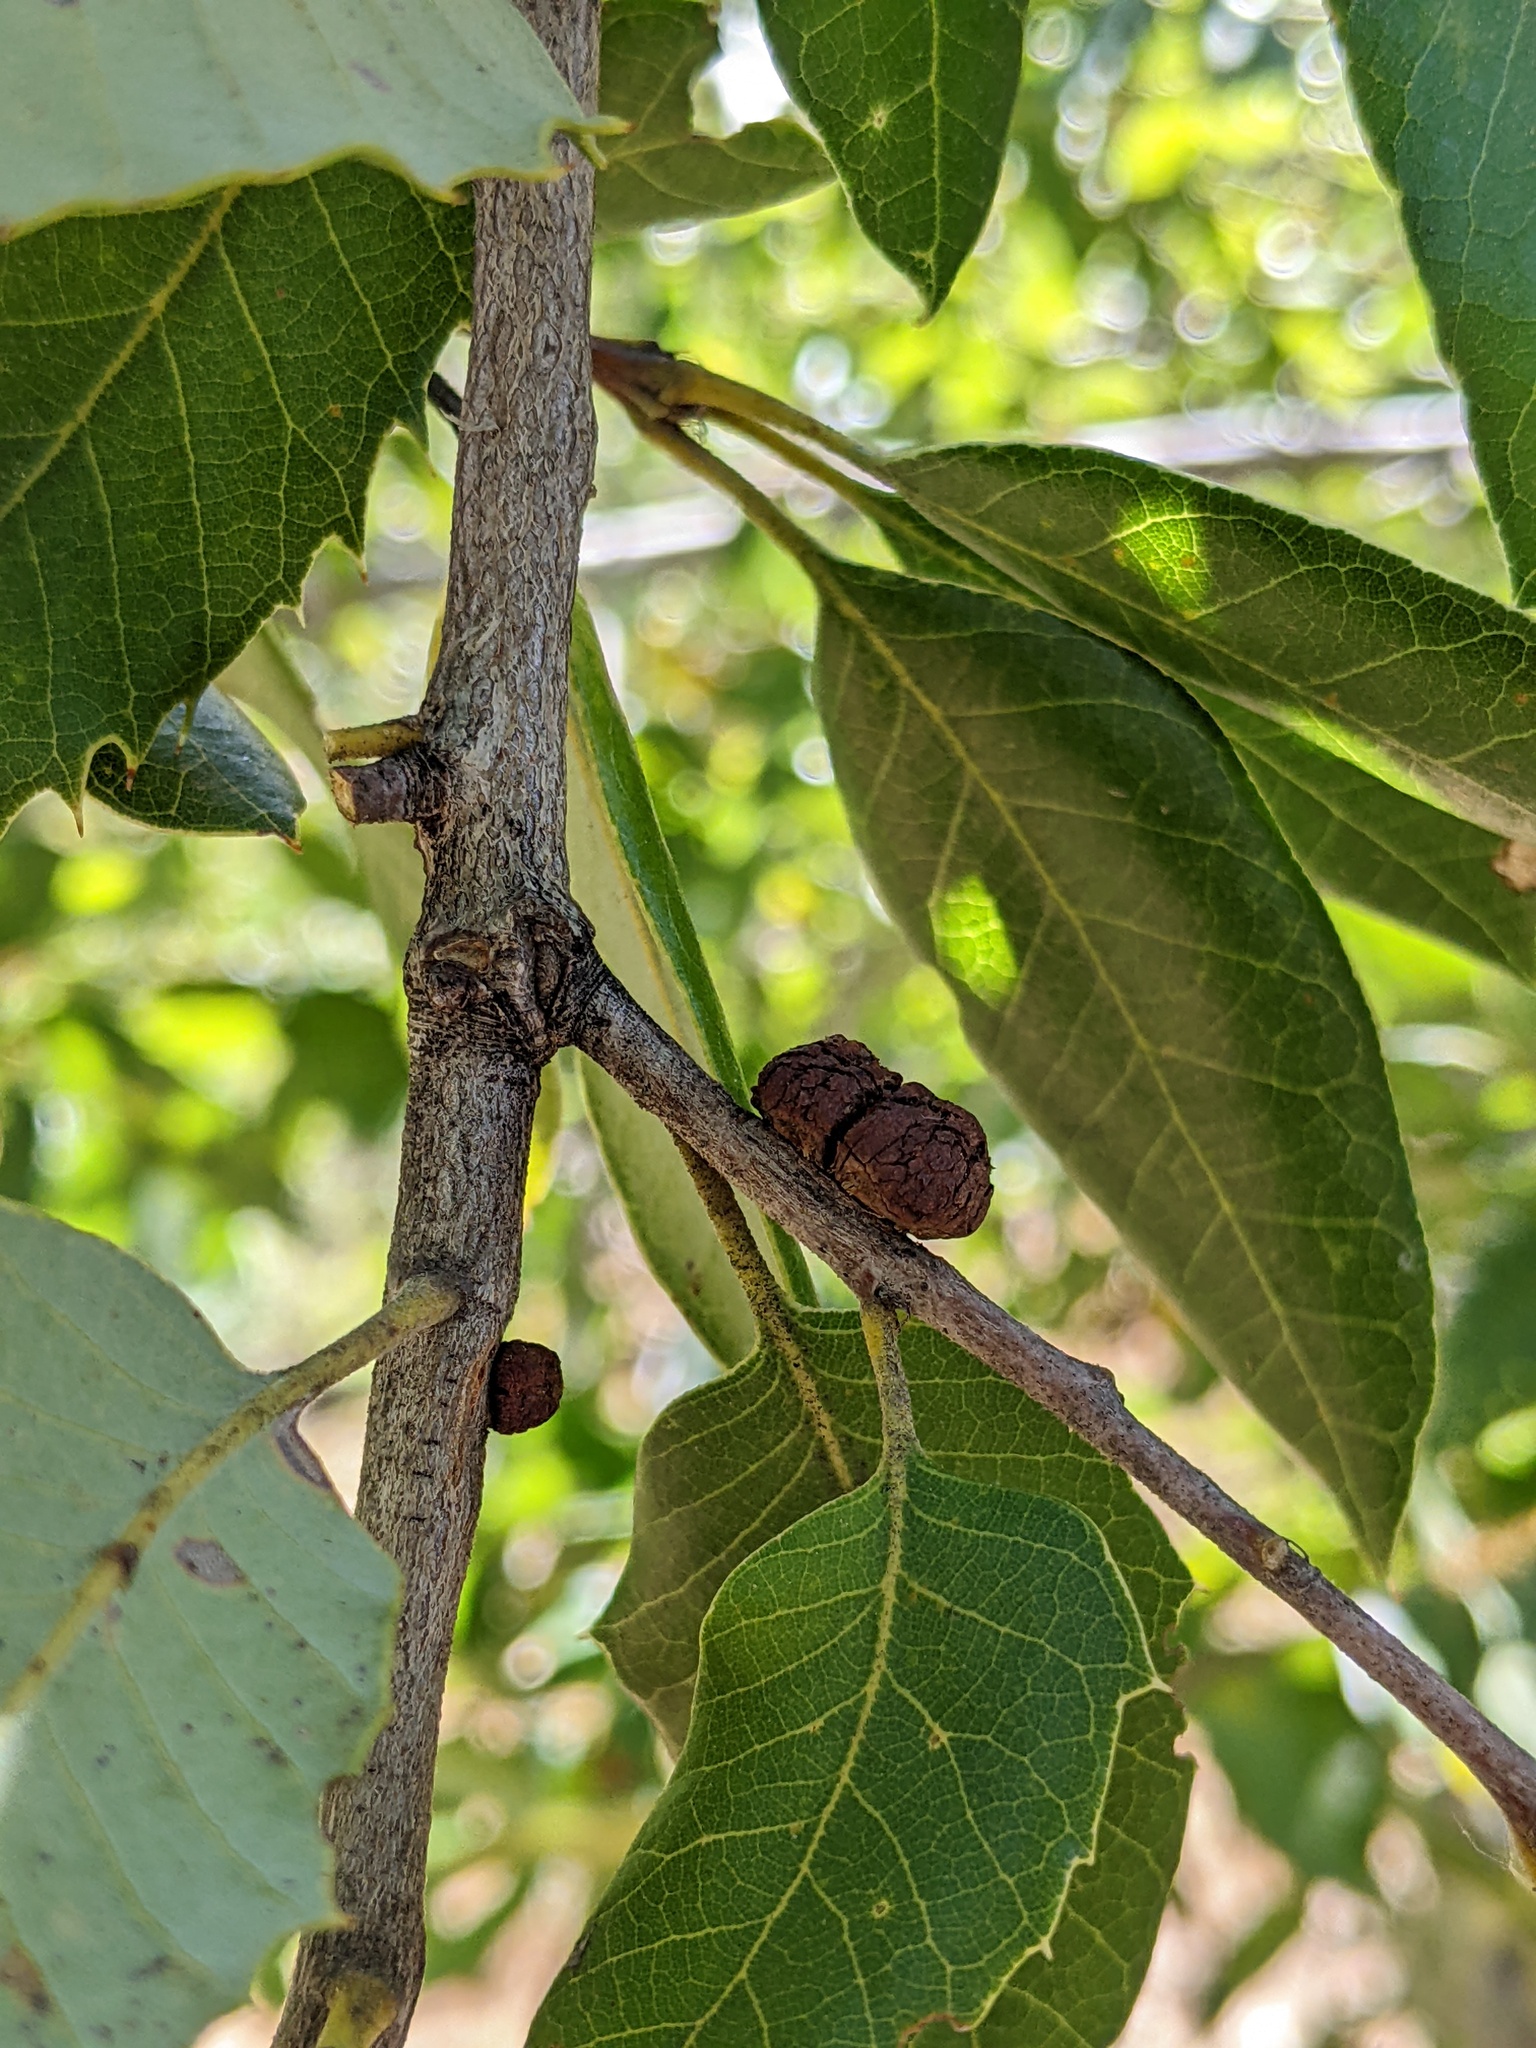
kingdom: Animalia
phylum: Arthropoda
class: Insecta
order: Hymenoptera
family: Cynipidae
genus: Disholandricus
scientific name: Disholandricus
